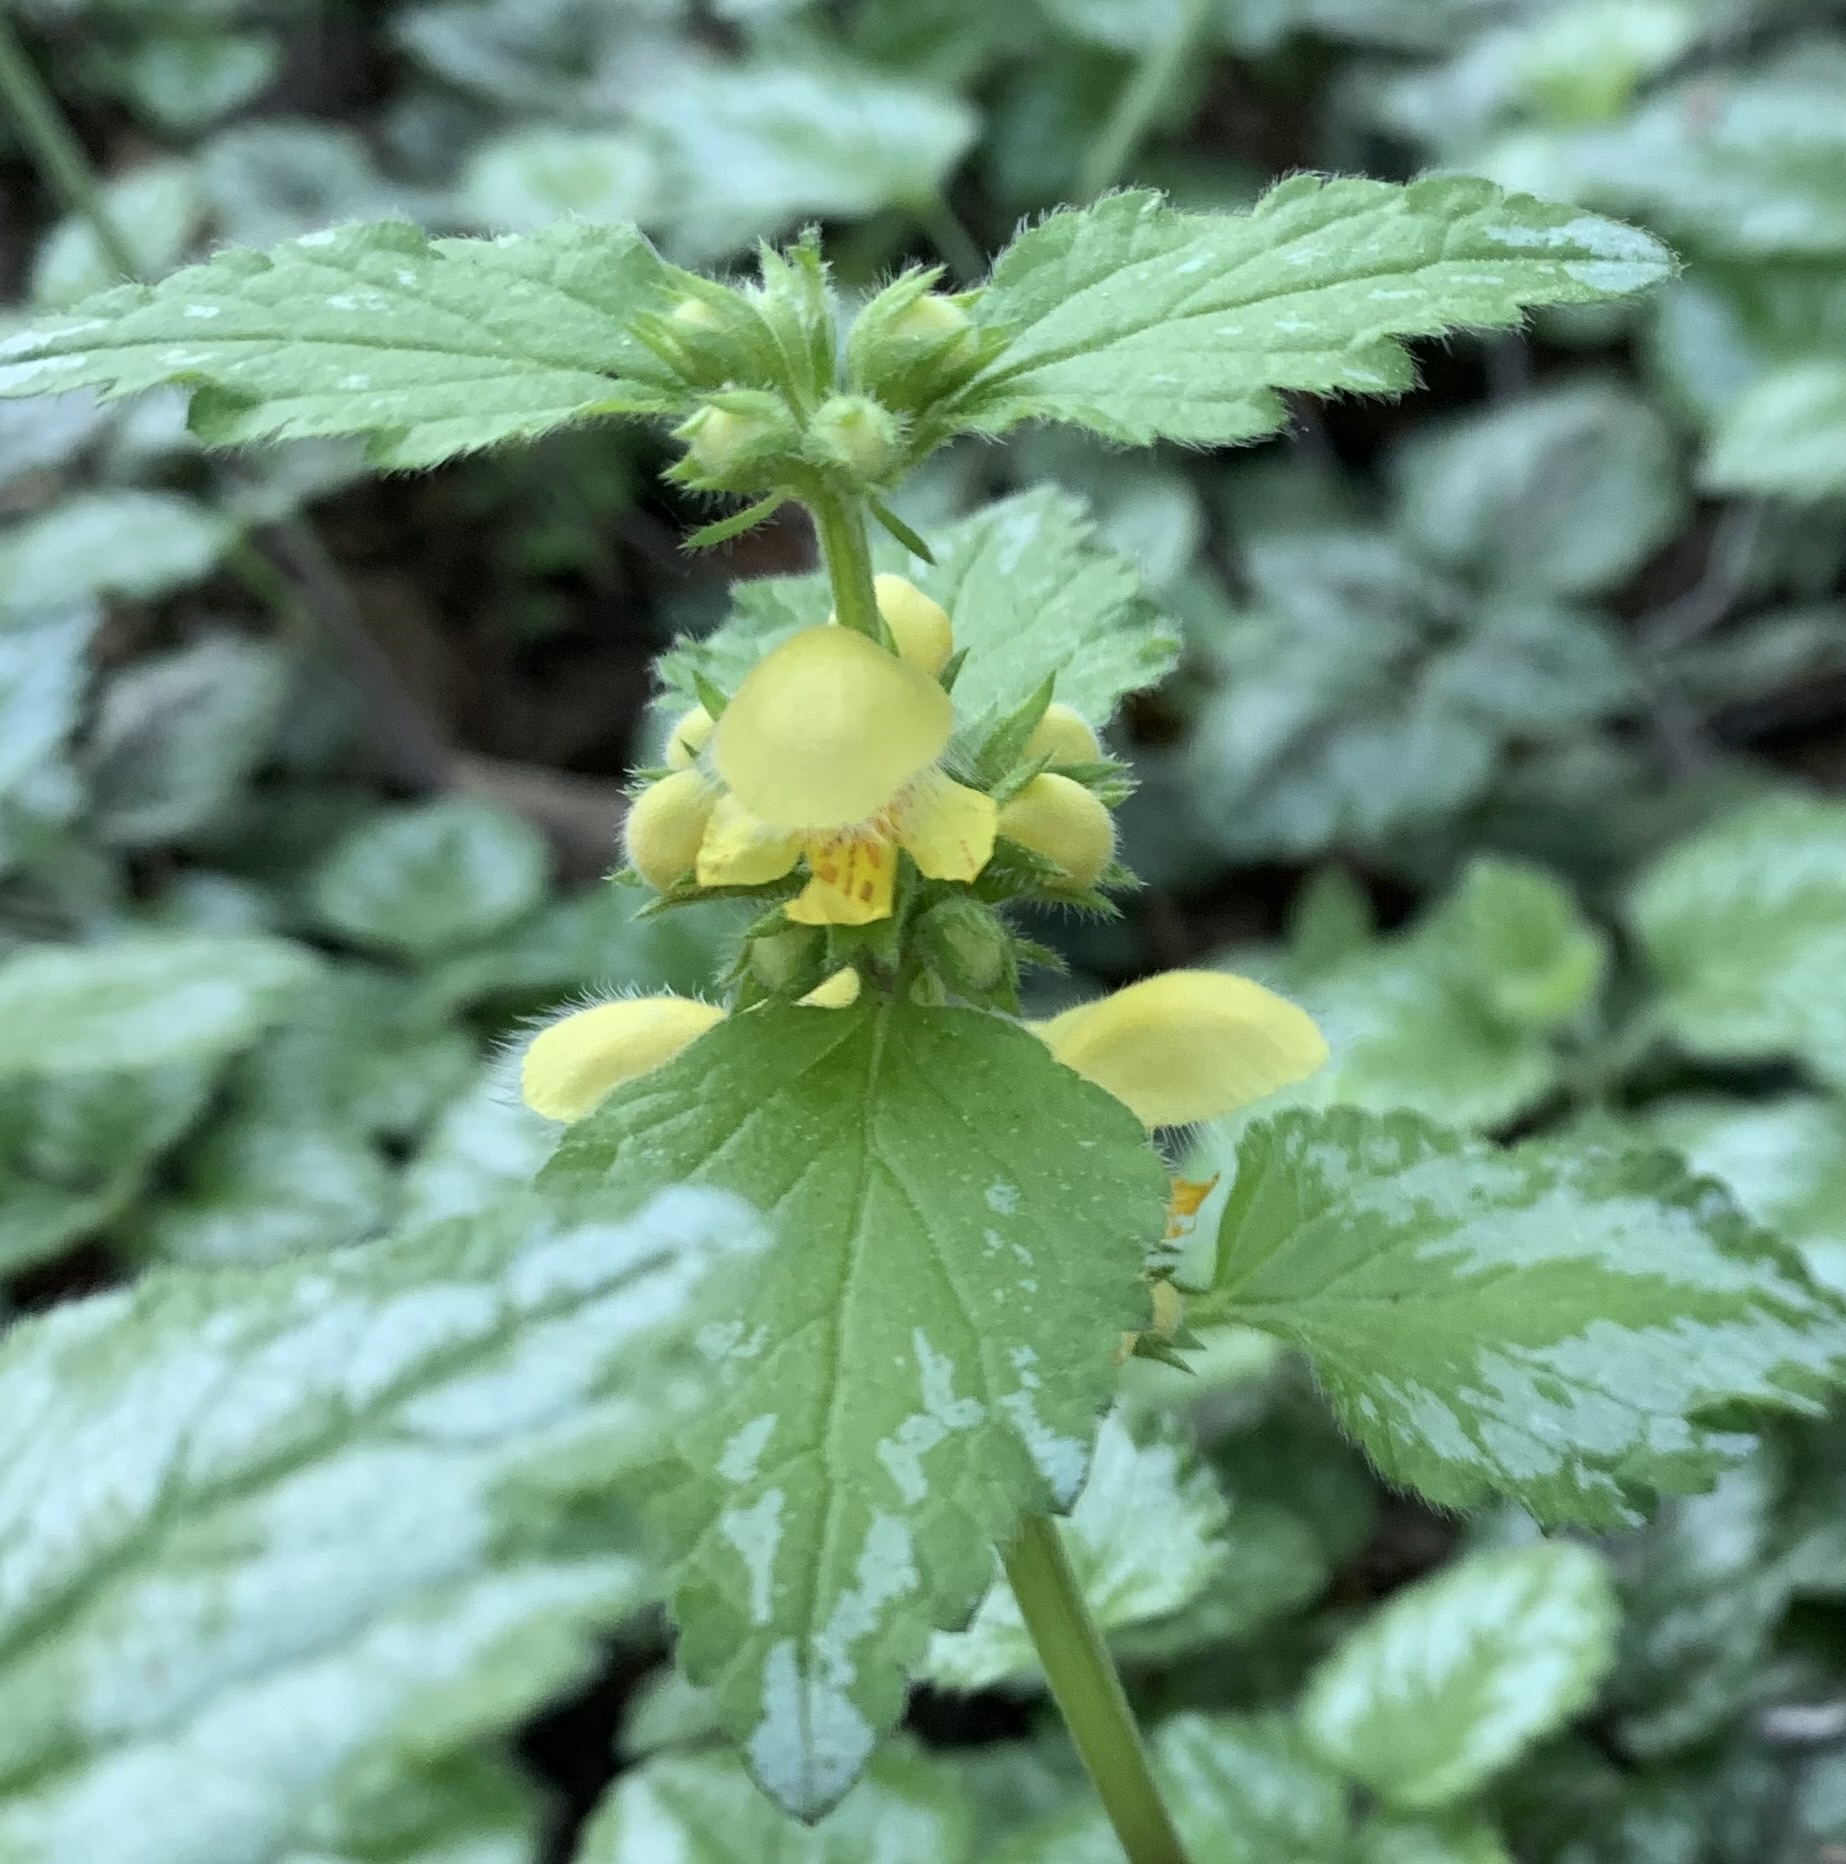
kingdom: Plantae
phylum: Tracheophyta
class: Magnoliopsida
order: Lamiales
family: Lamiaceae
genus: Lamium
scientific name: Lamium galeobdolon
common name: Yellow archangel
